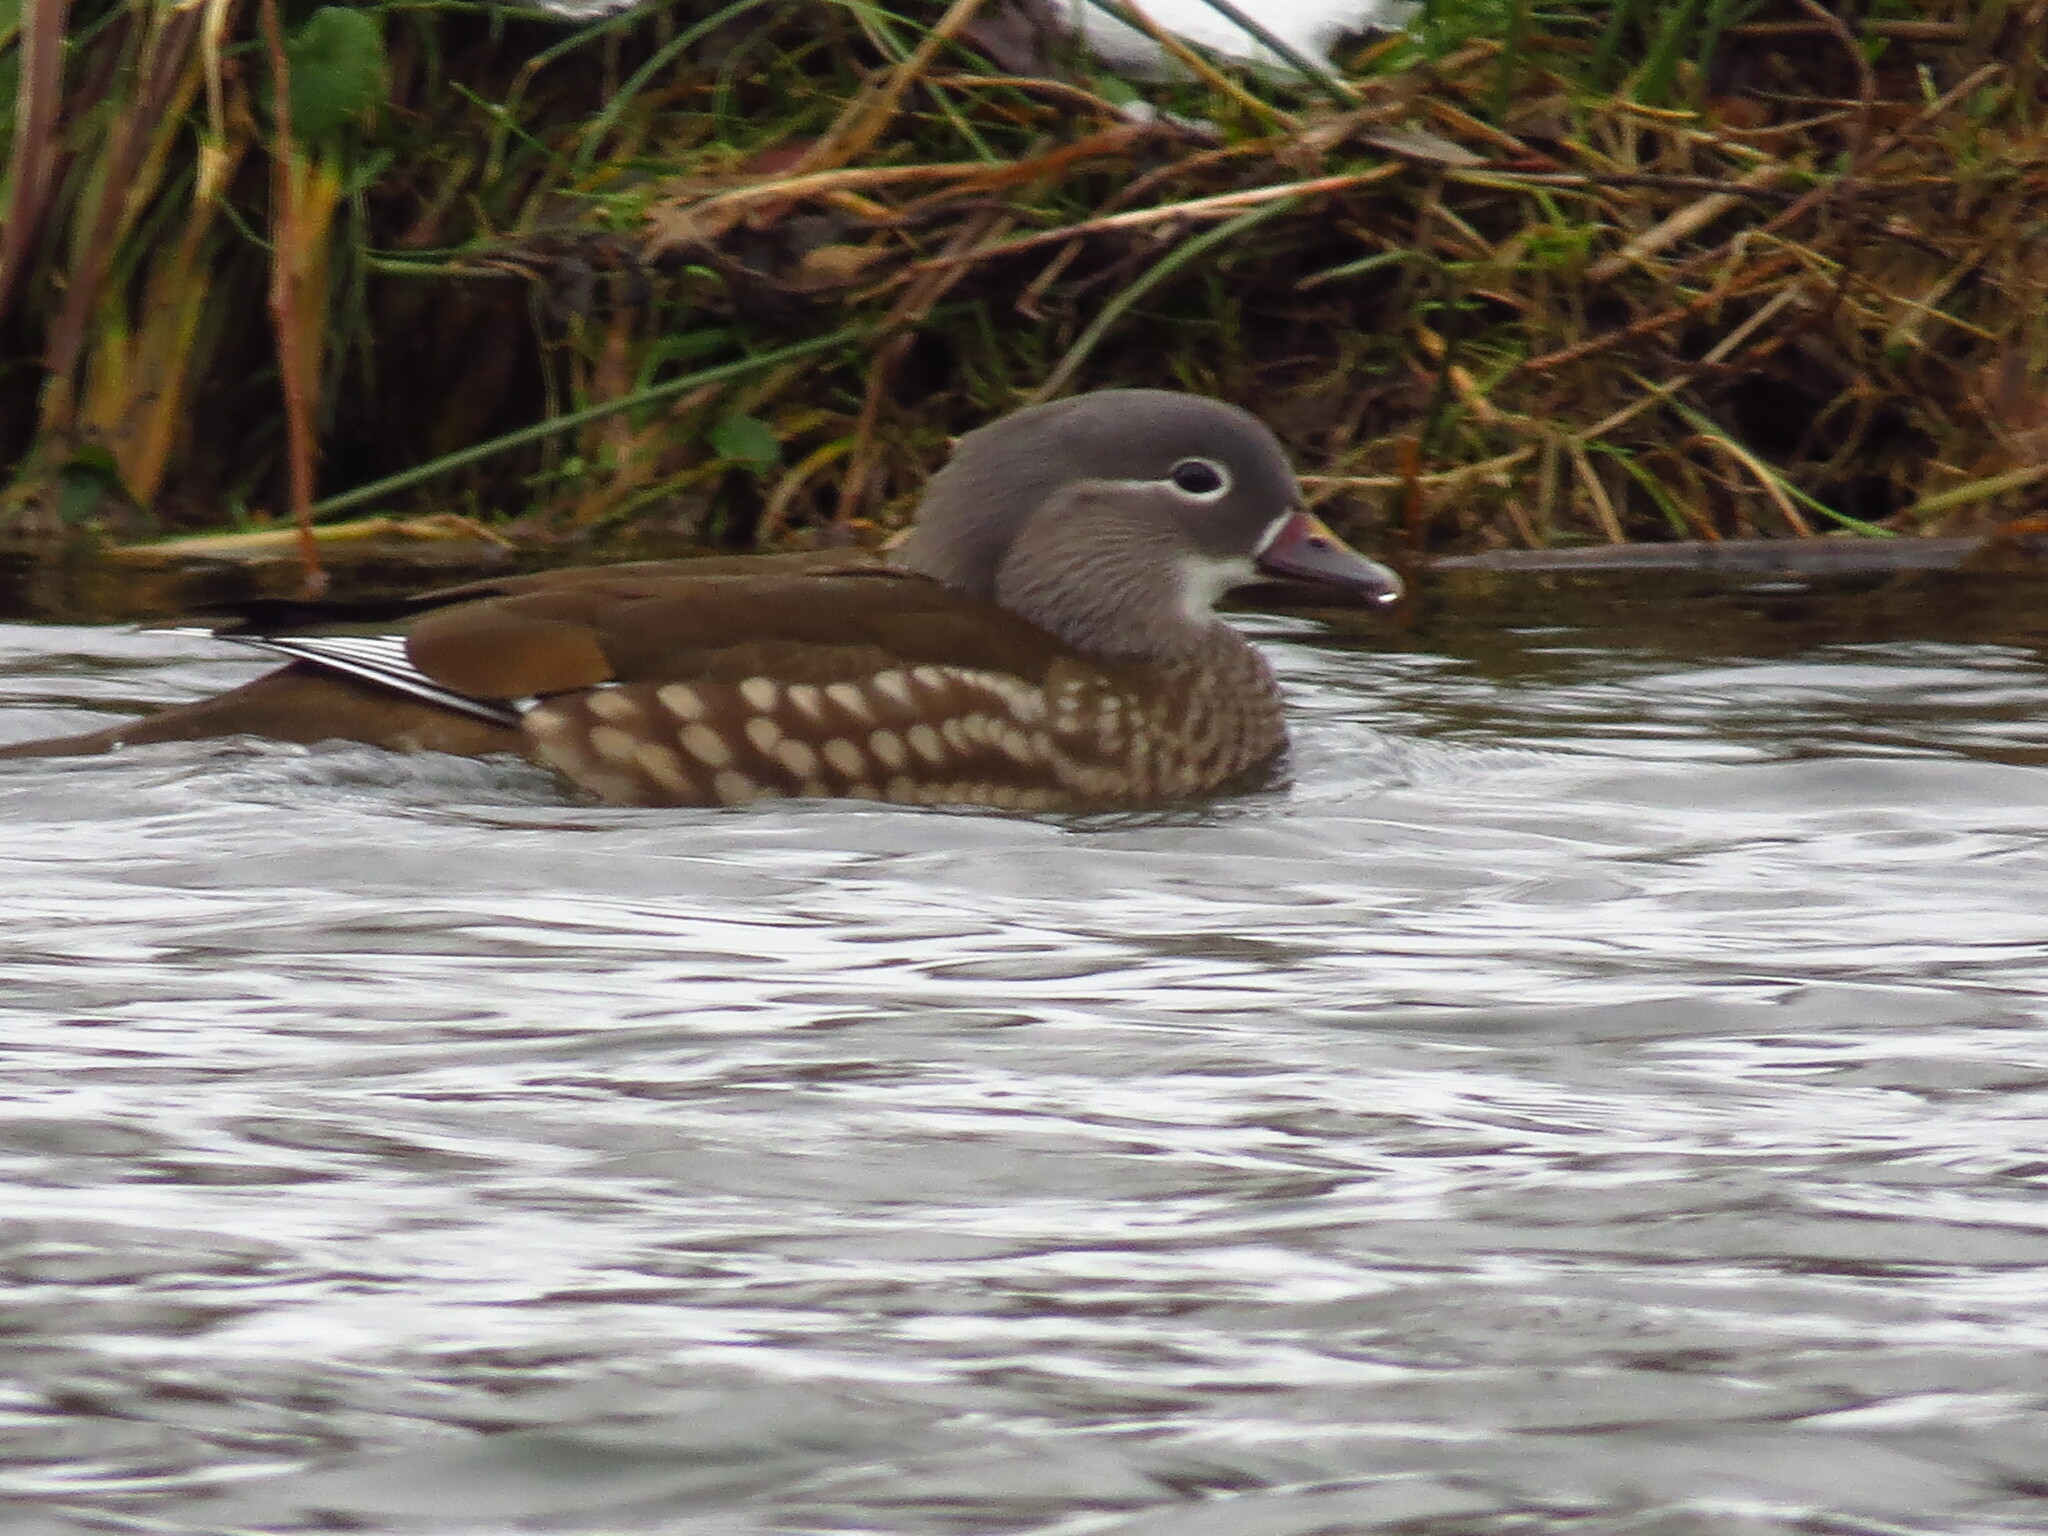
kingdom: Animalia
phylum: Chordata
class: Aves
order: Anseriformes
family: Anatidae
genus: Aix
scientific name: Aix galericulata
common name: Mandarin duck
